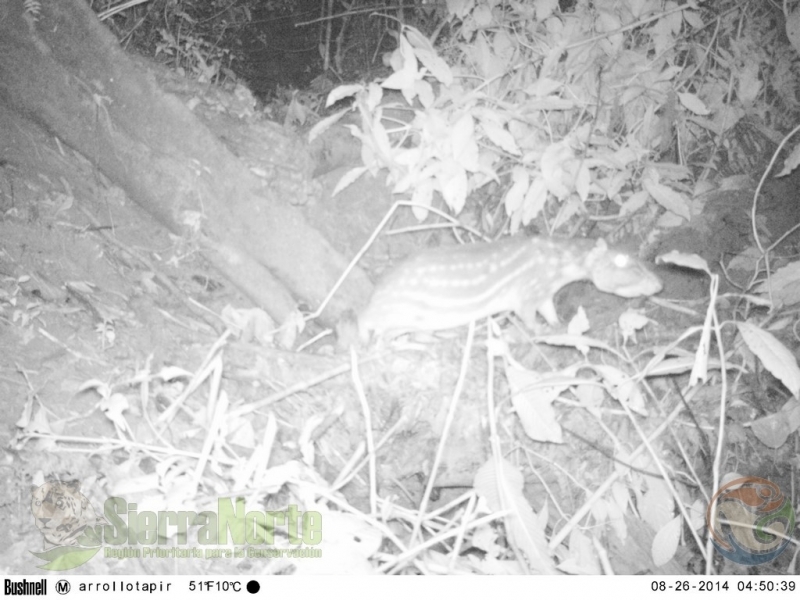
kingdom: Animalia
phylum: Chordata
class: Mammalia
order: Rodentia
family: Cuniculidae
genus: Cuniculus
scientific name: Cuniculus paca
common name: Lowland paca
